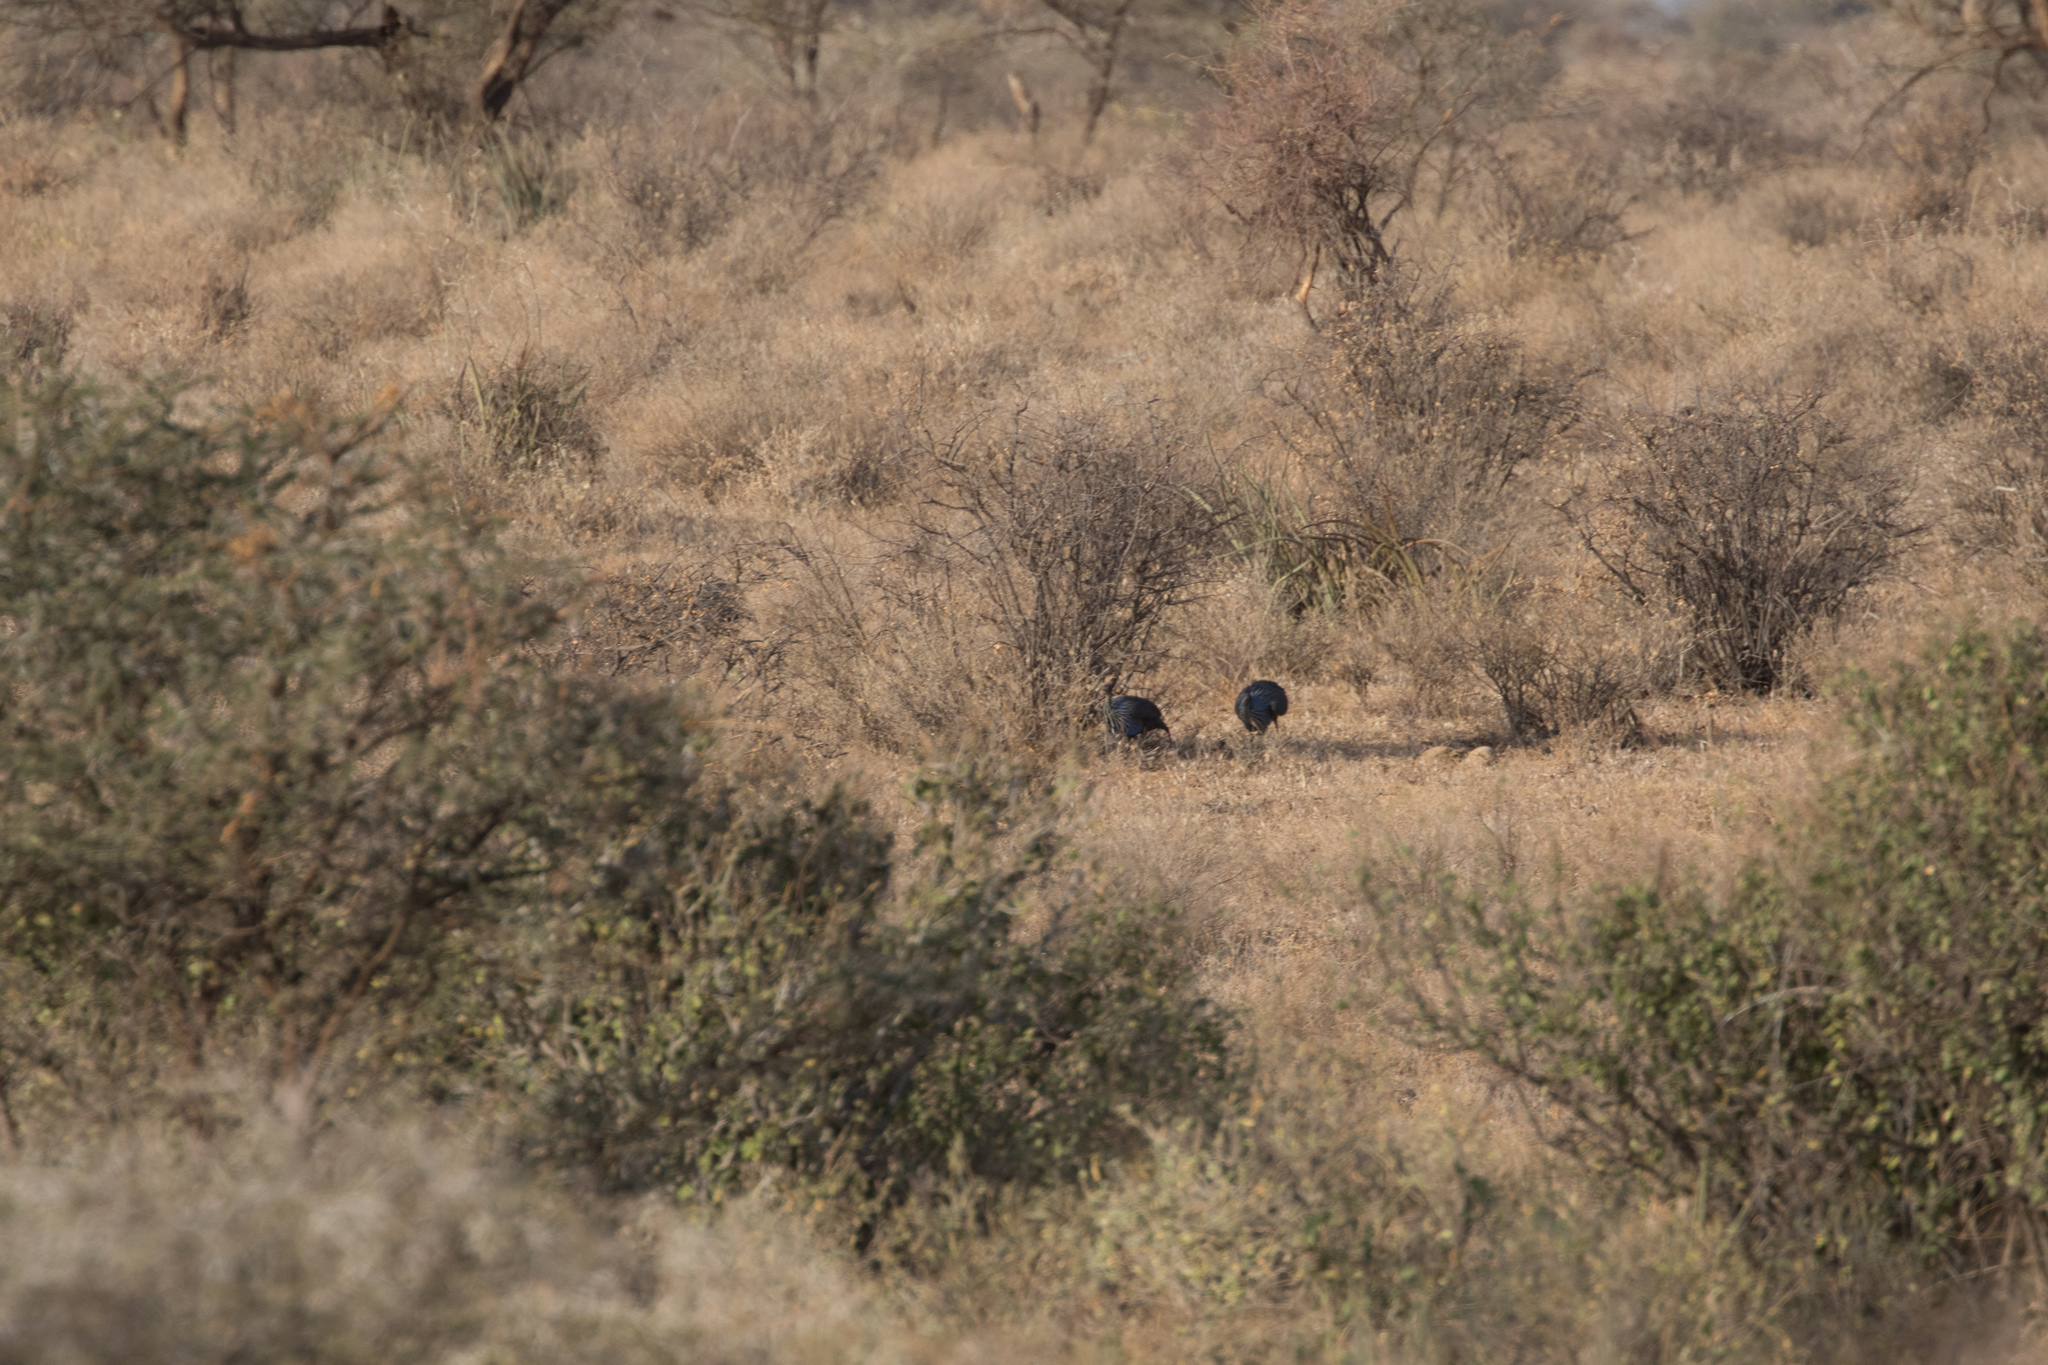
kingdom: Animalia
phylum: Chordata
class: Aves
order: Galliformes
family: Numididae
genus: Acryllium
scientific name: Acryllium vulturinum
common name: Vulturine guineafowl
